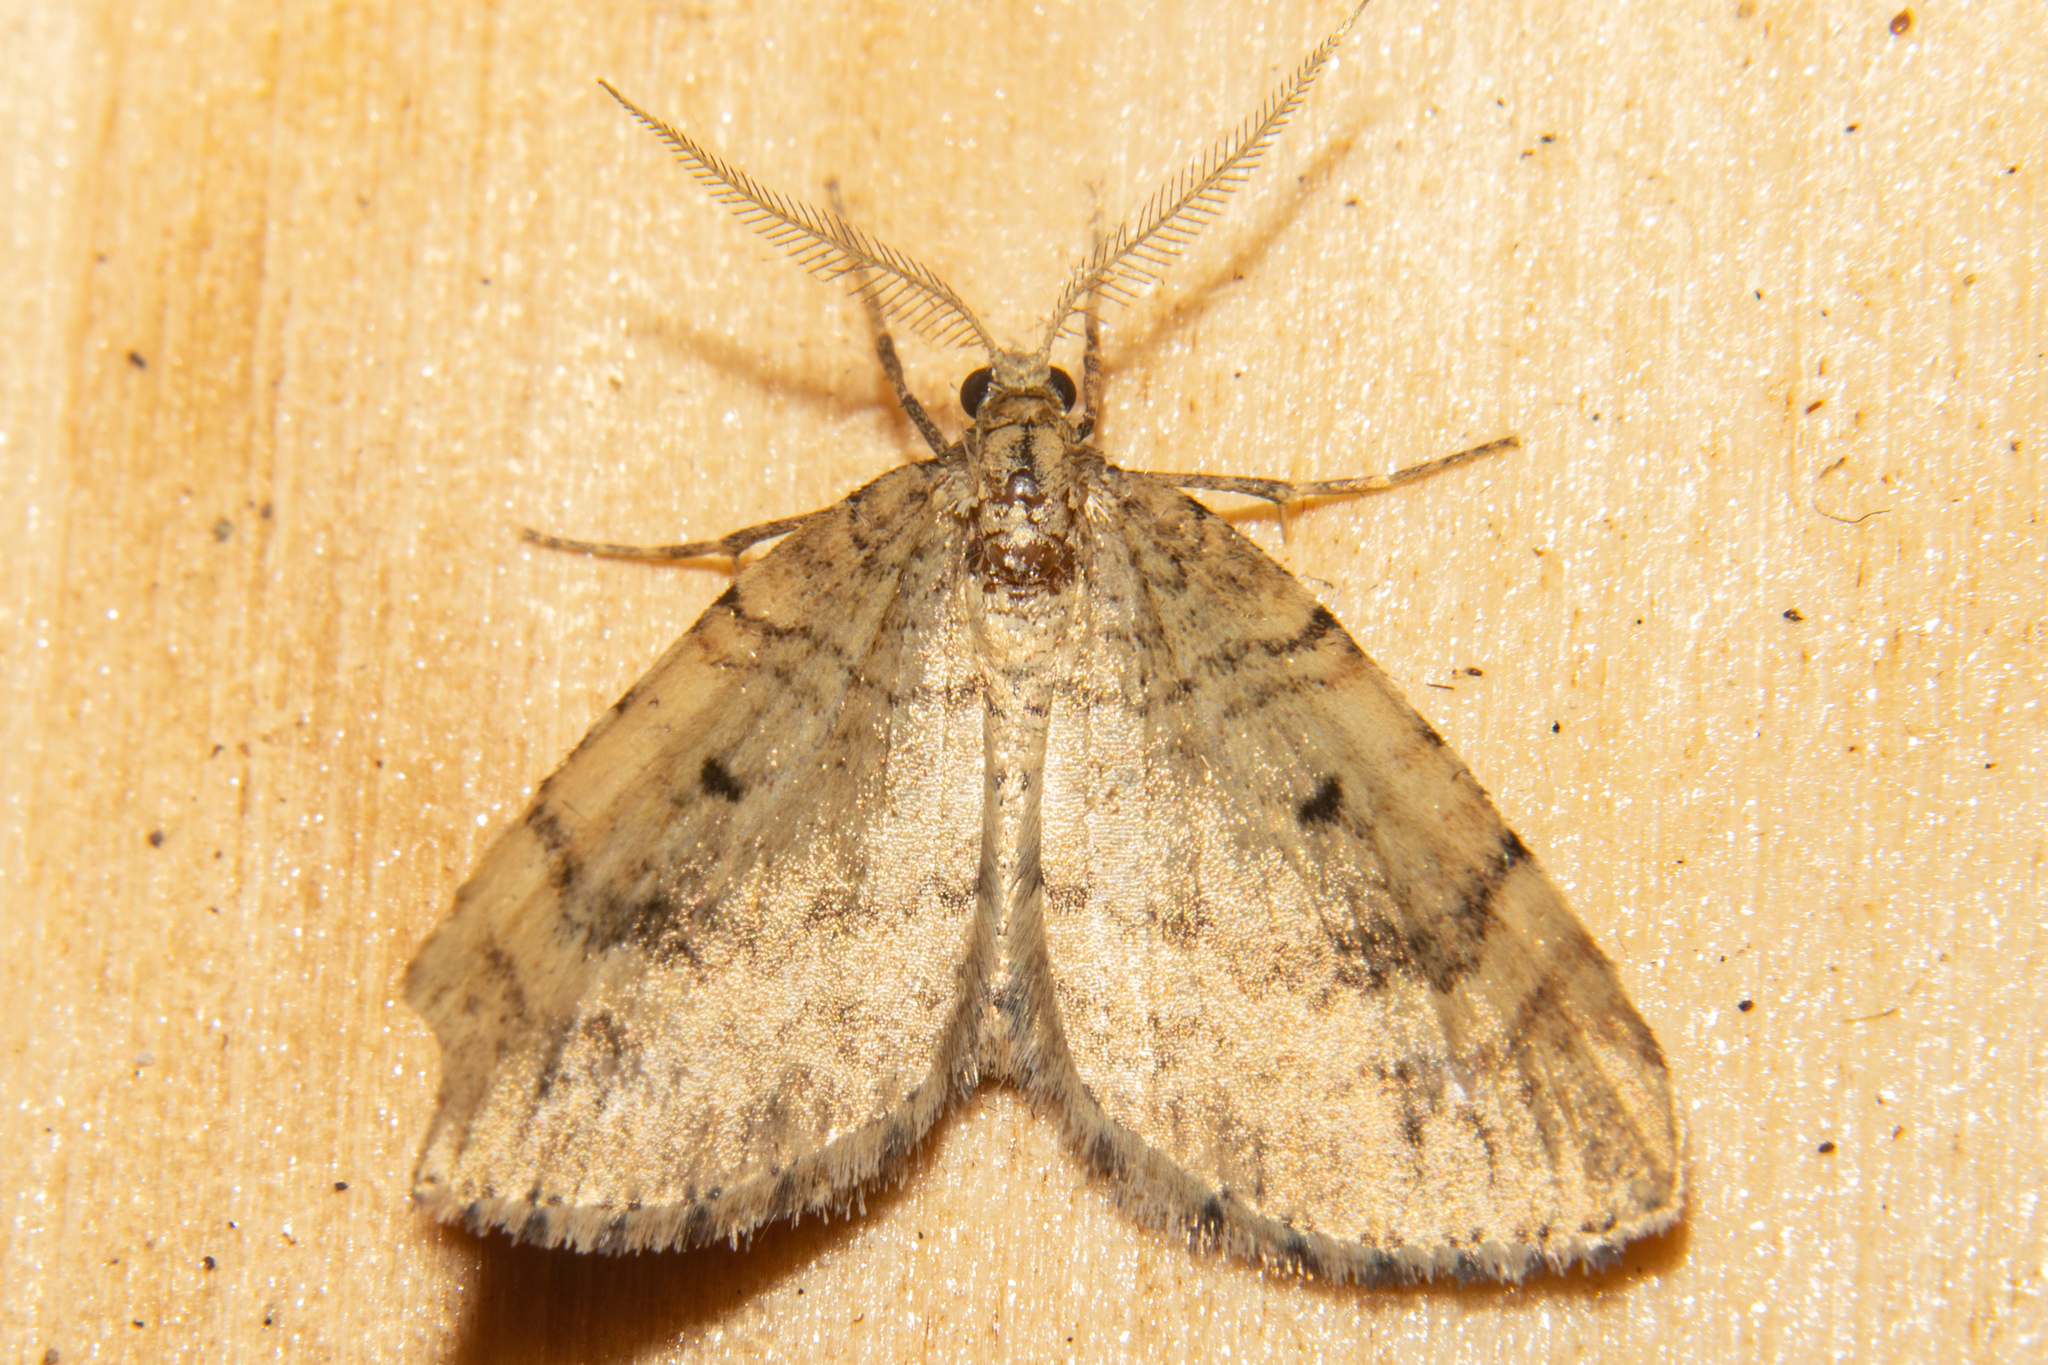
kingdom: Animalia
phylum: Arthropoda
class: Insecta
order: Lepidoptera
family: Geometridae
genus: Asaphodes
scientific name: Asaphodes aegrota
